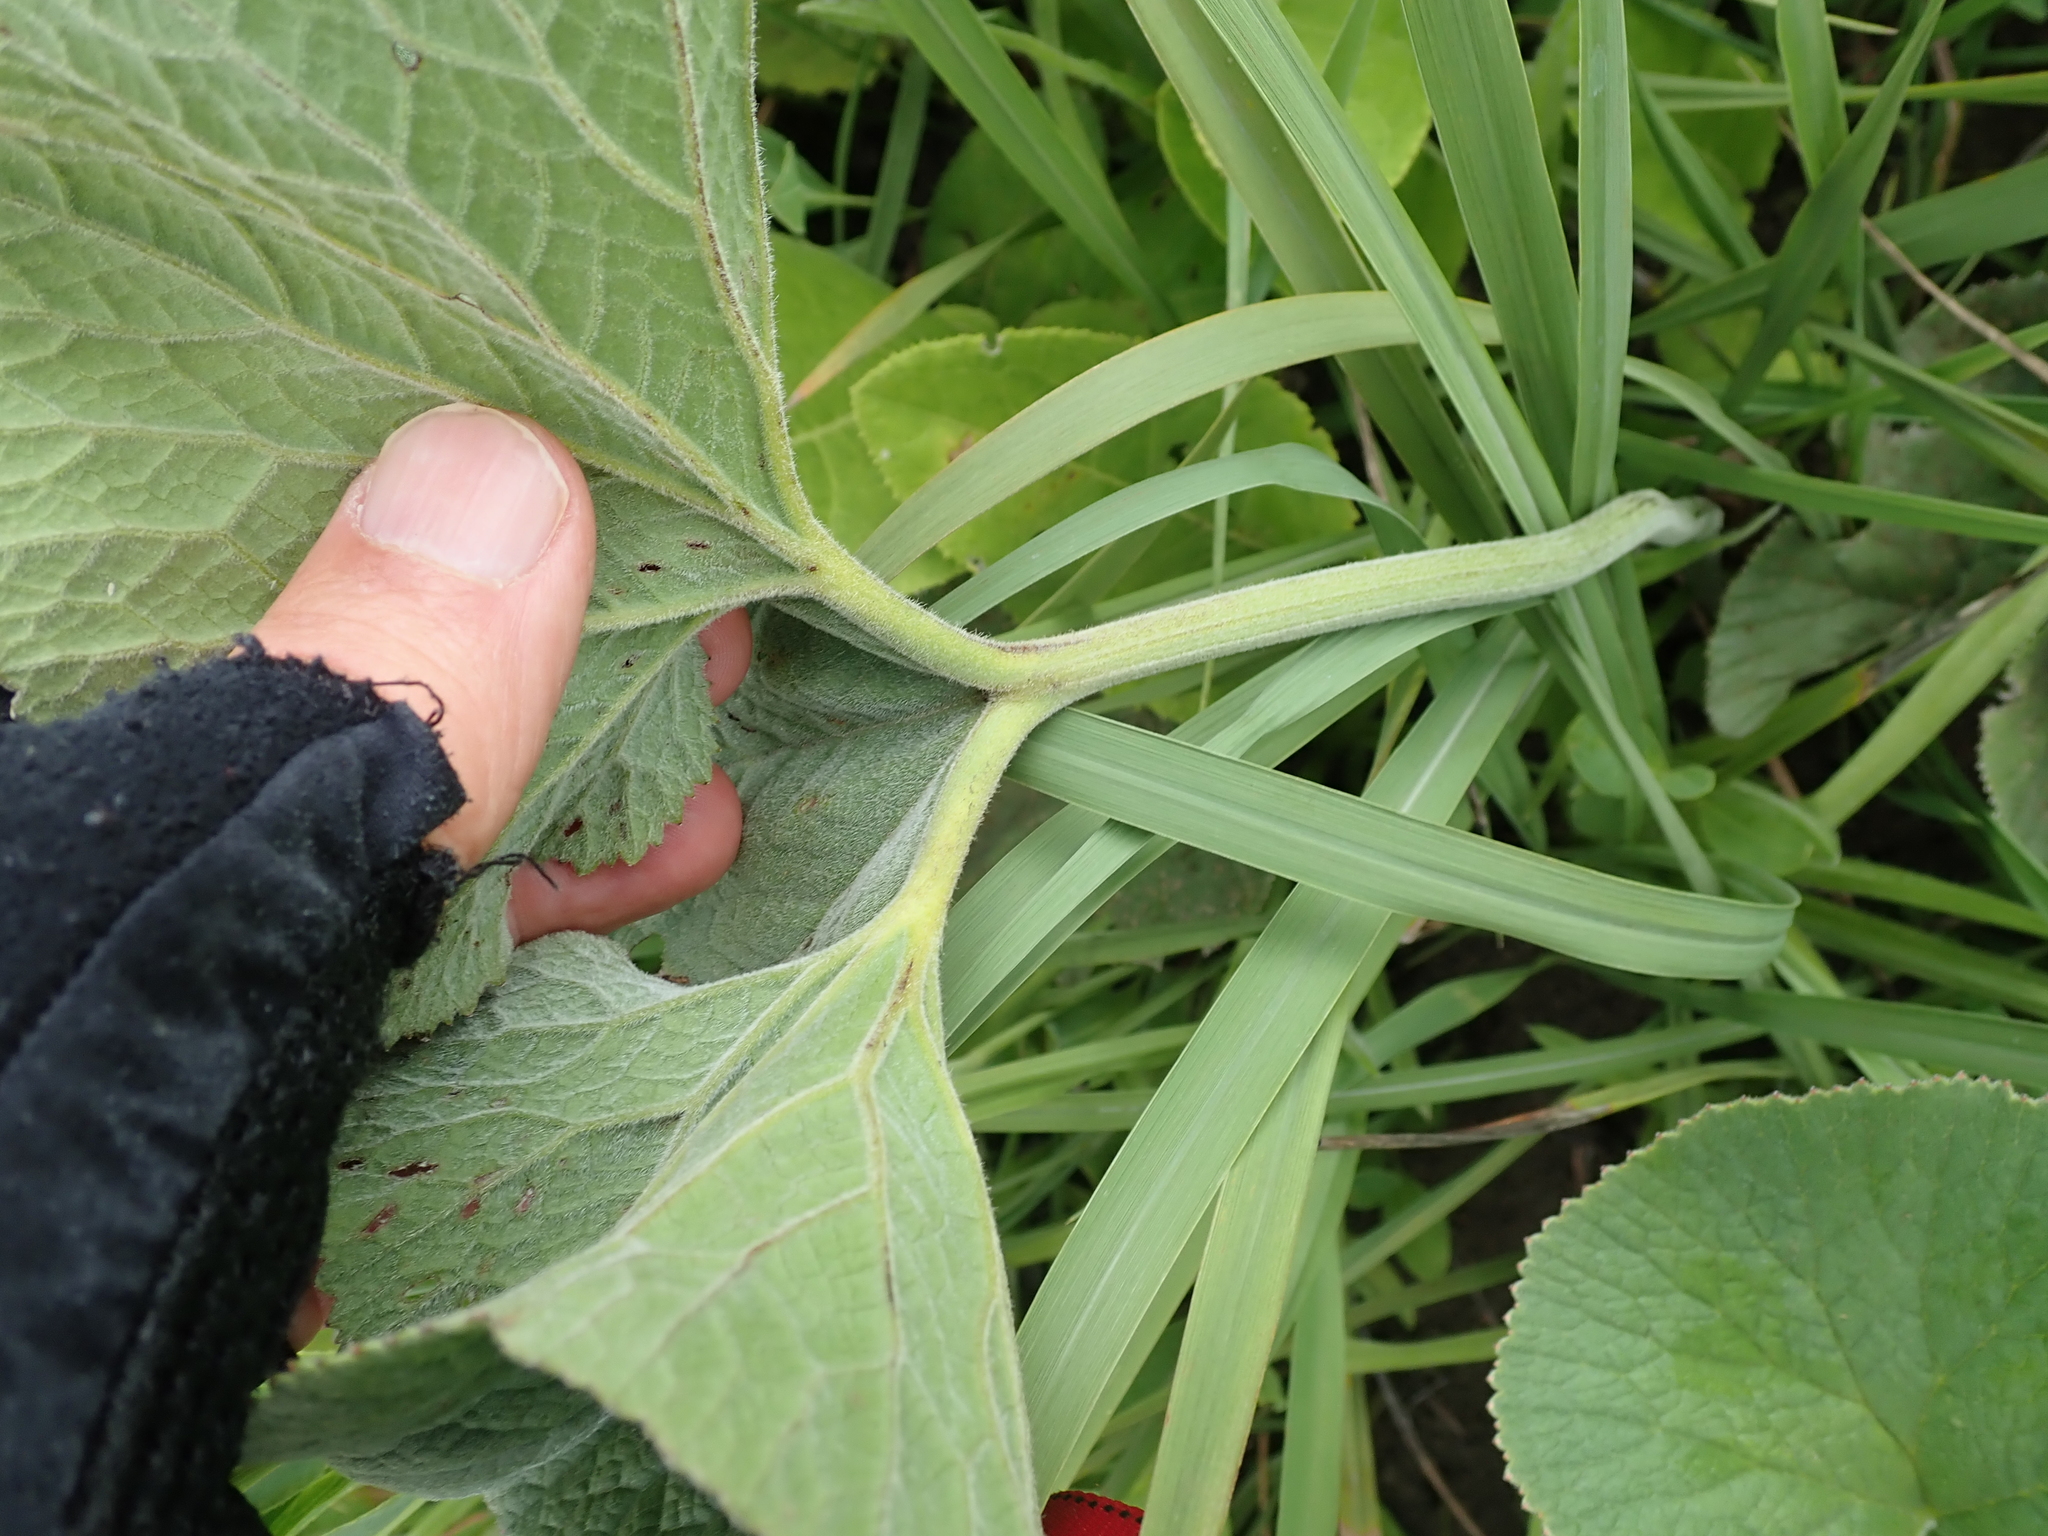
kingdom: Plantae
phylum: Tracheophyta
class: Magnoliopsida
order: Gunnerales
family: Gunneraceae
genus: Gunnera
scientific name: Gunnera perpensa
